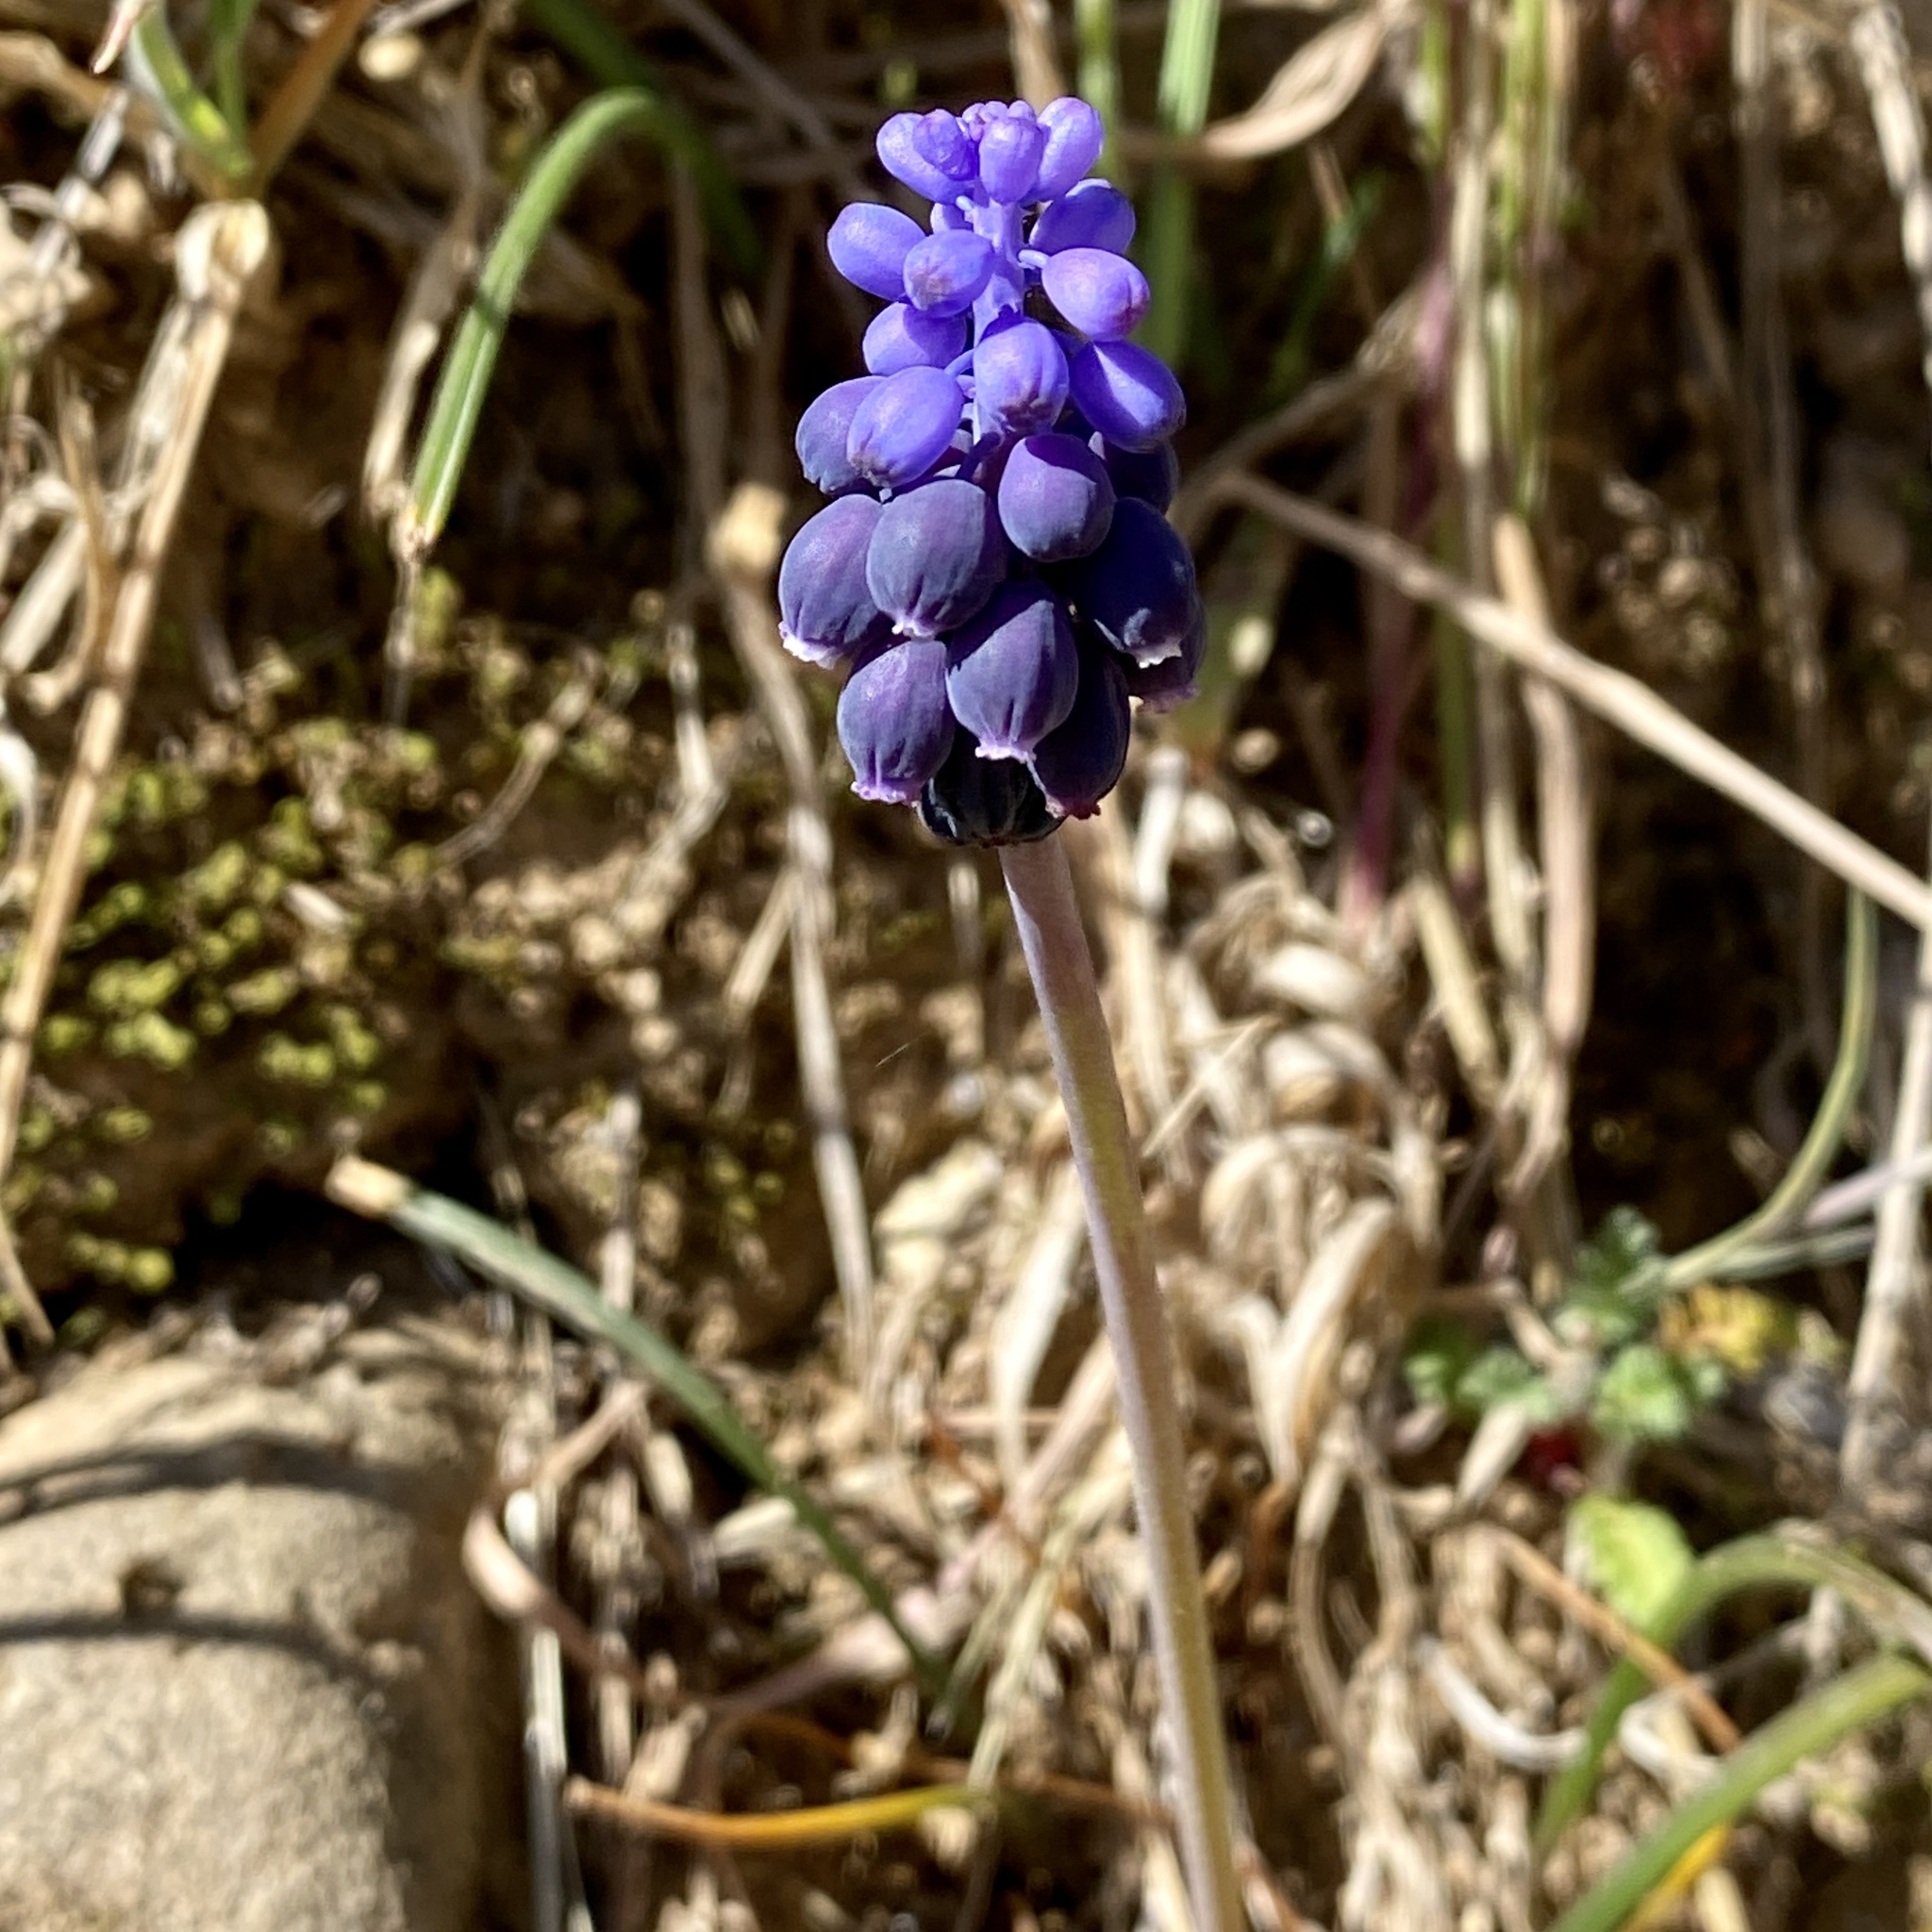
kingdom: Plantae
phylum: Tracheophyta
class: Liliopsida
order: Asparagales
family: Asparagaceae
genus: Muscari
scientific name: Muscari neglectum
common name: Grape-hyacinth
